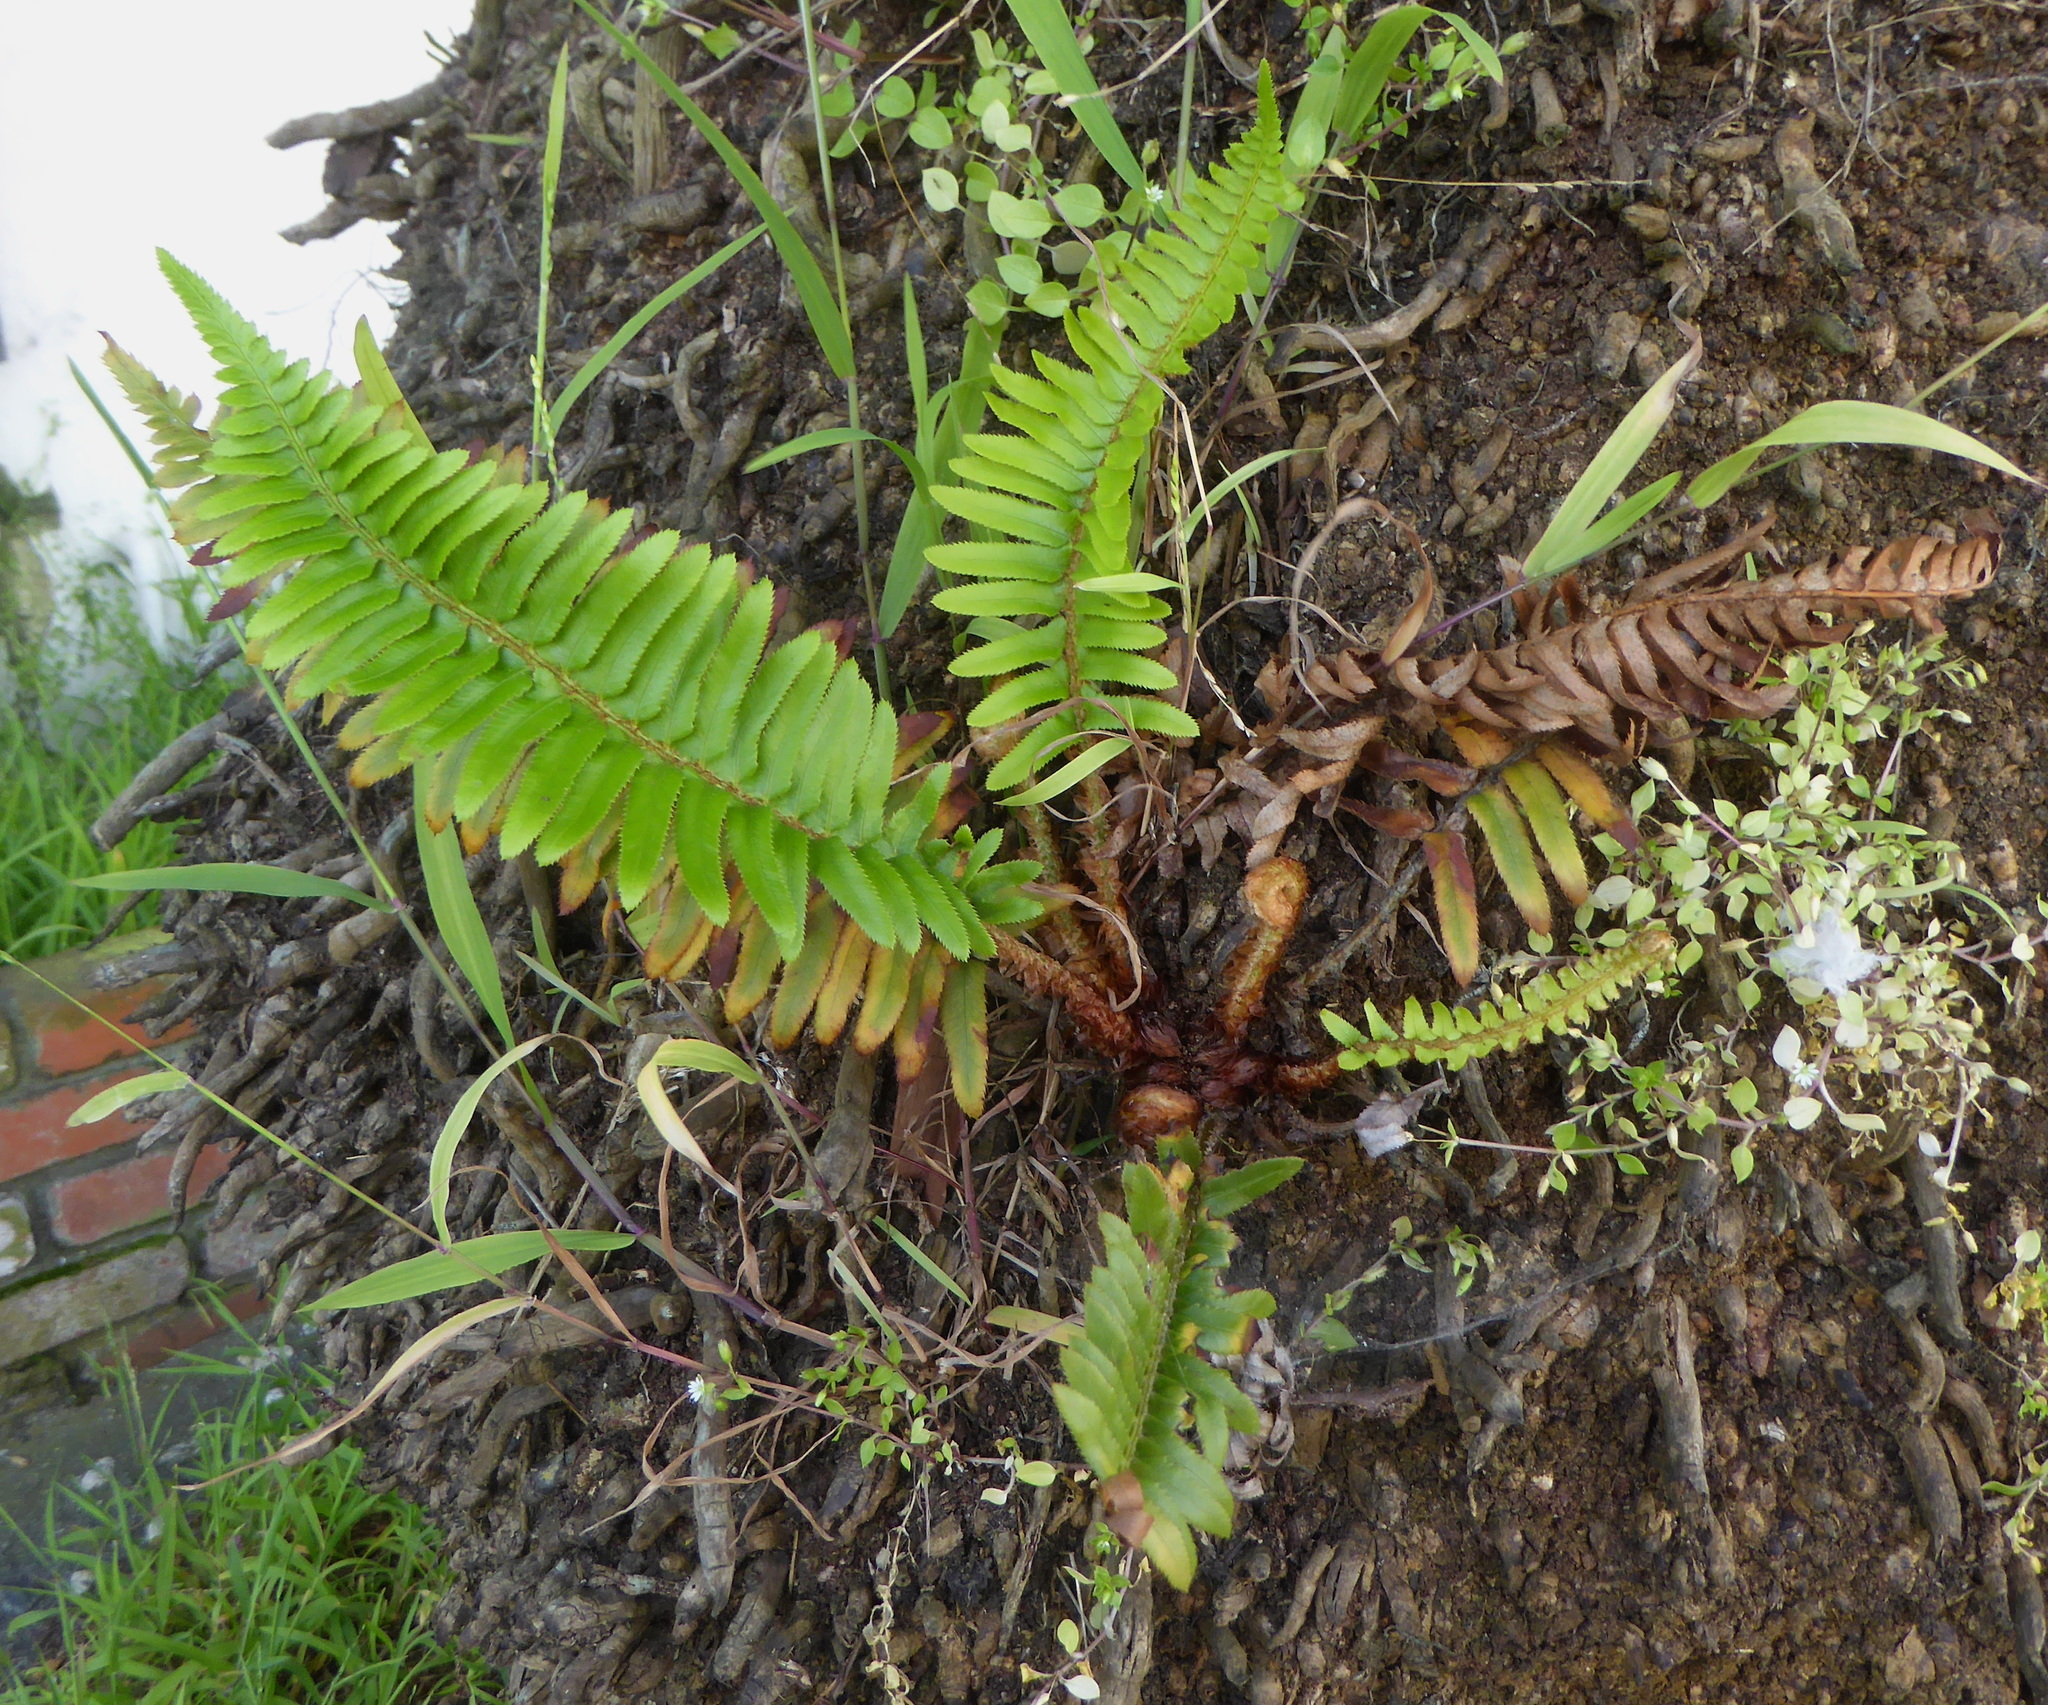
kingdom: Plantae
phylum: Tracheophyta
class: Polypodiopsida
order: Polypodiales
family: Dryopteridaceae
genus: Polystichum
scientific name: Polystichum munitum
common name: Western sword-fern
